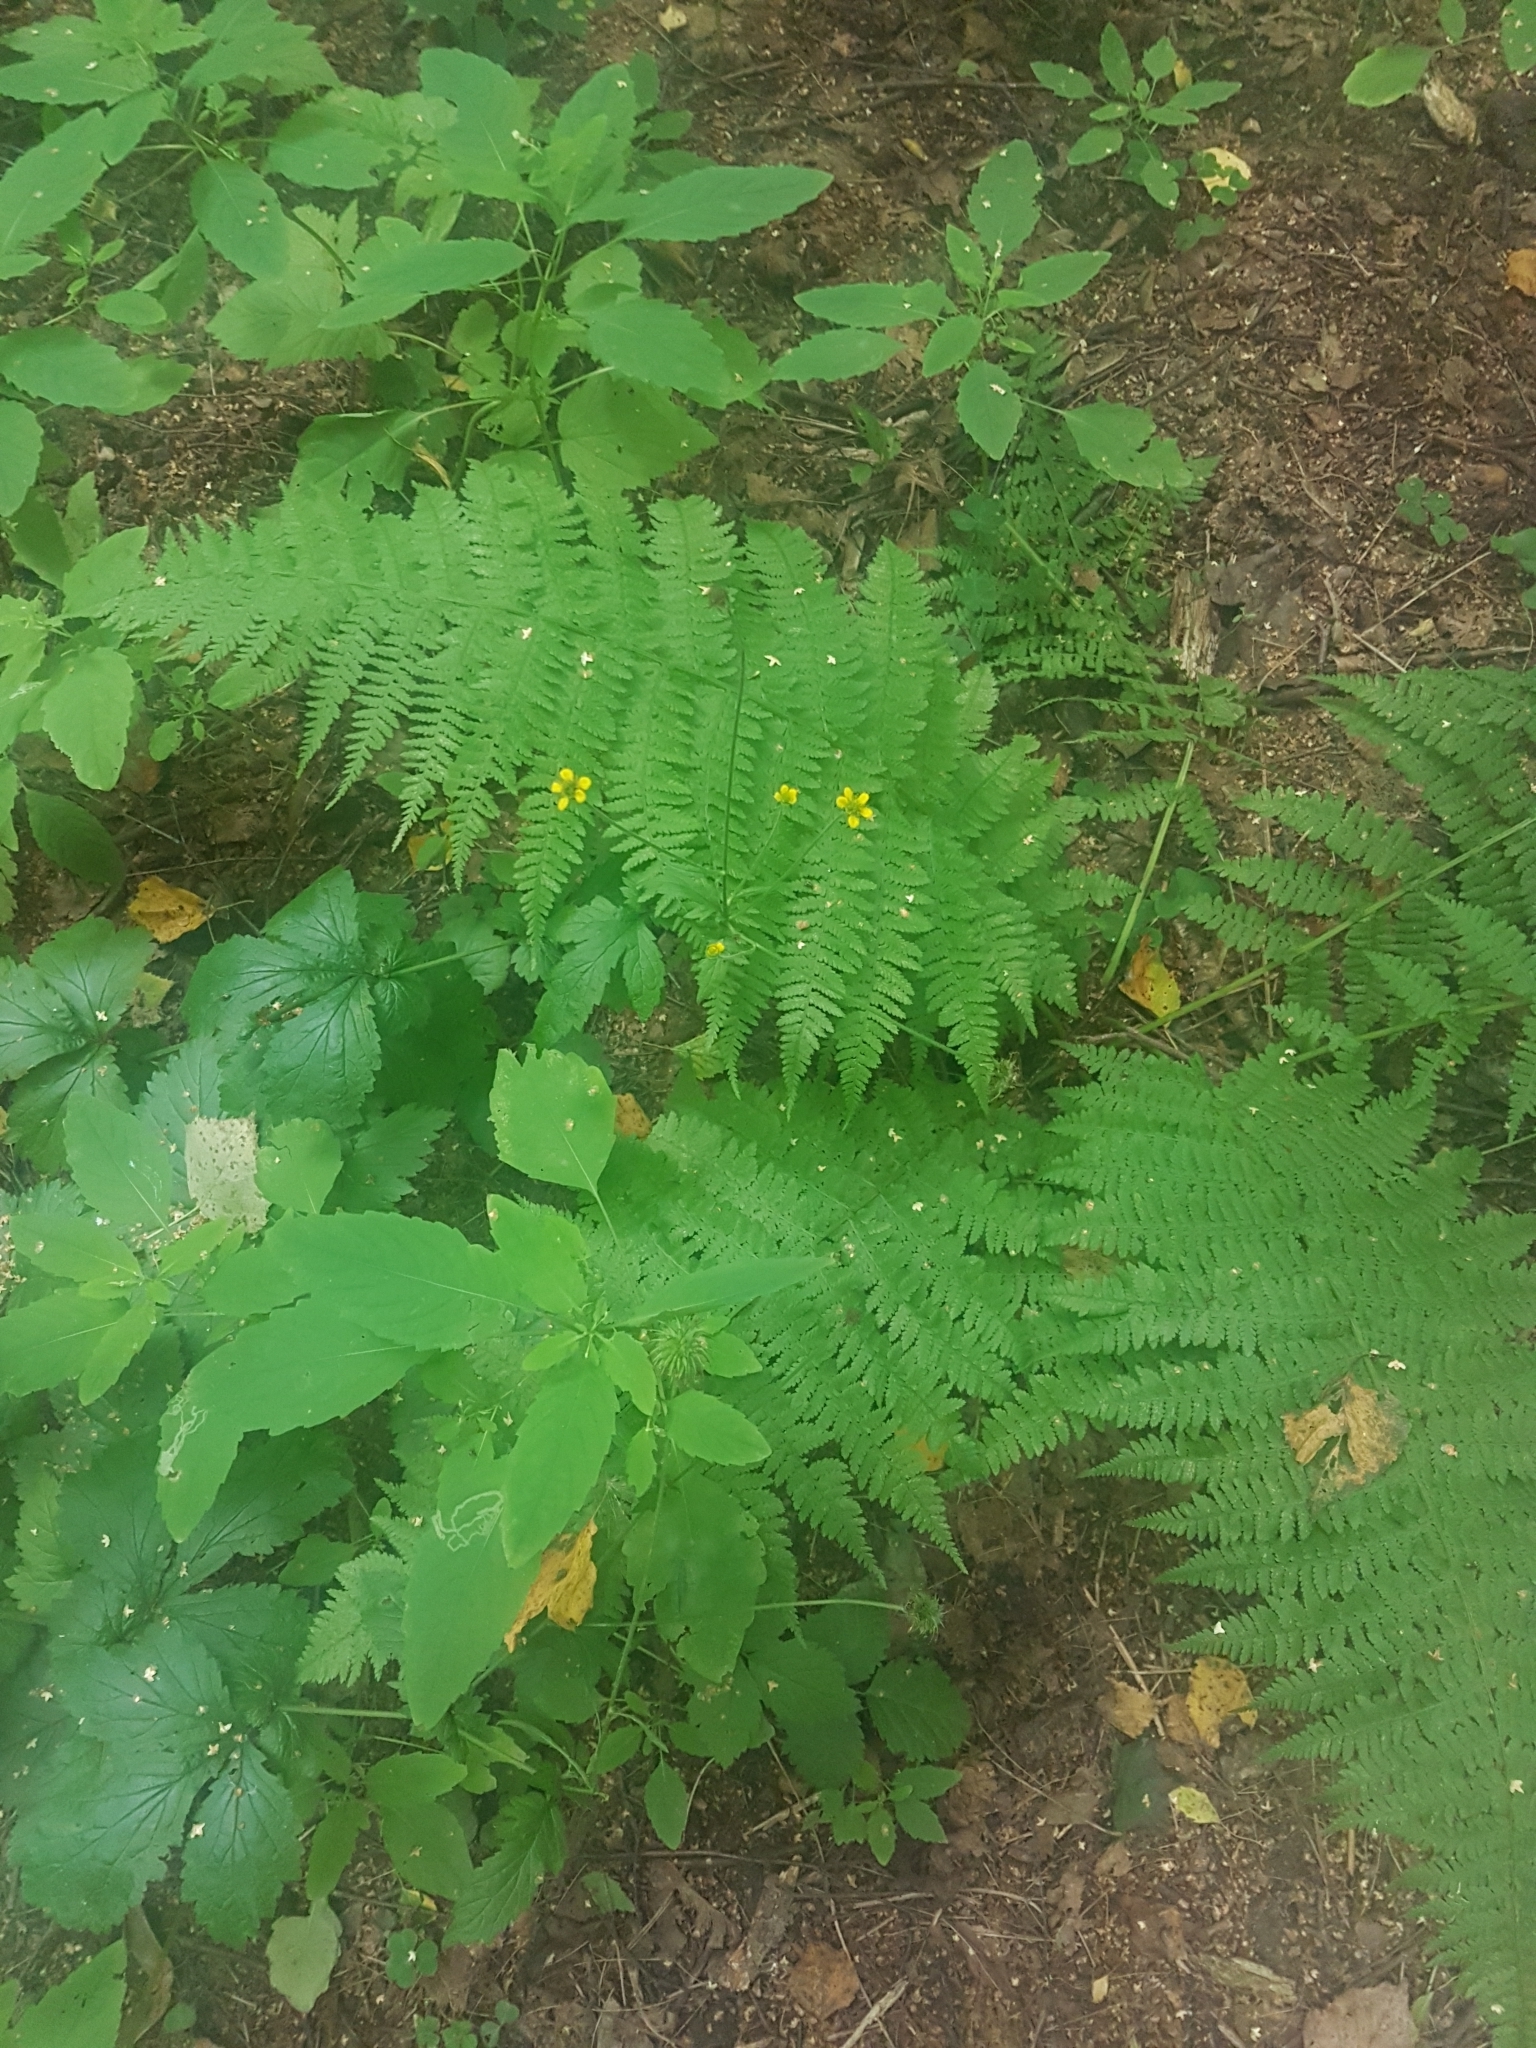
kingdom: Plantae
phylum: Tracheophyta
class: Polypodiopsida
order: Polypodiales
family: Athyriaceae
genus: Athyrium
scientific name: Athyrium filix-femina
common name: Lady fern
